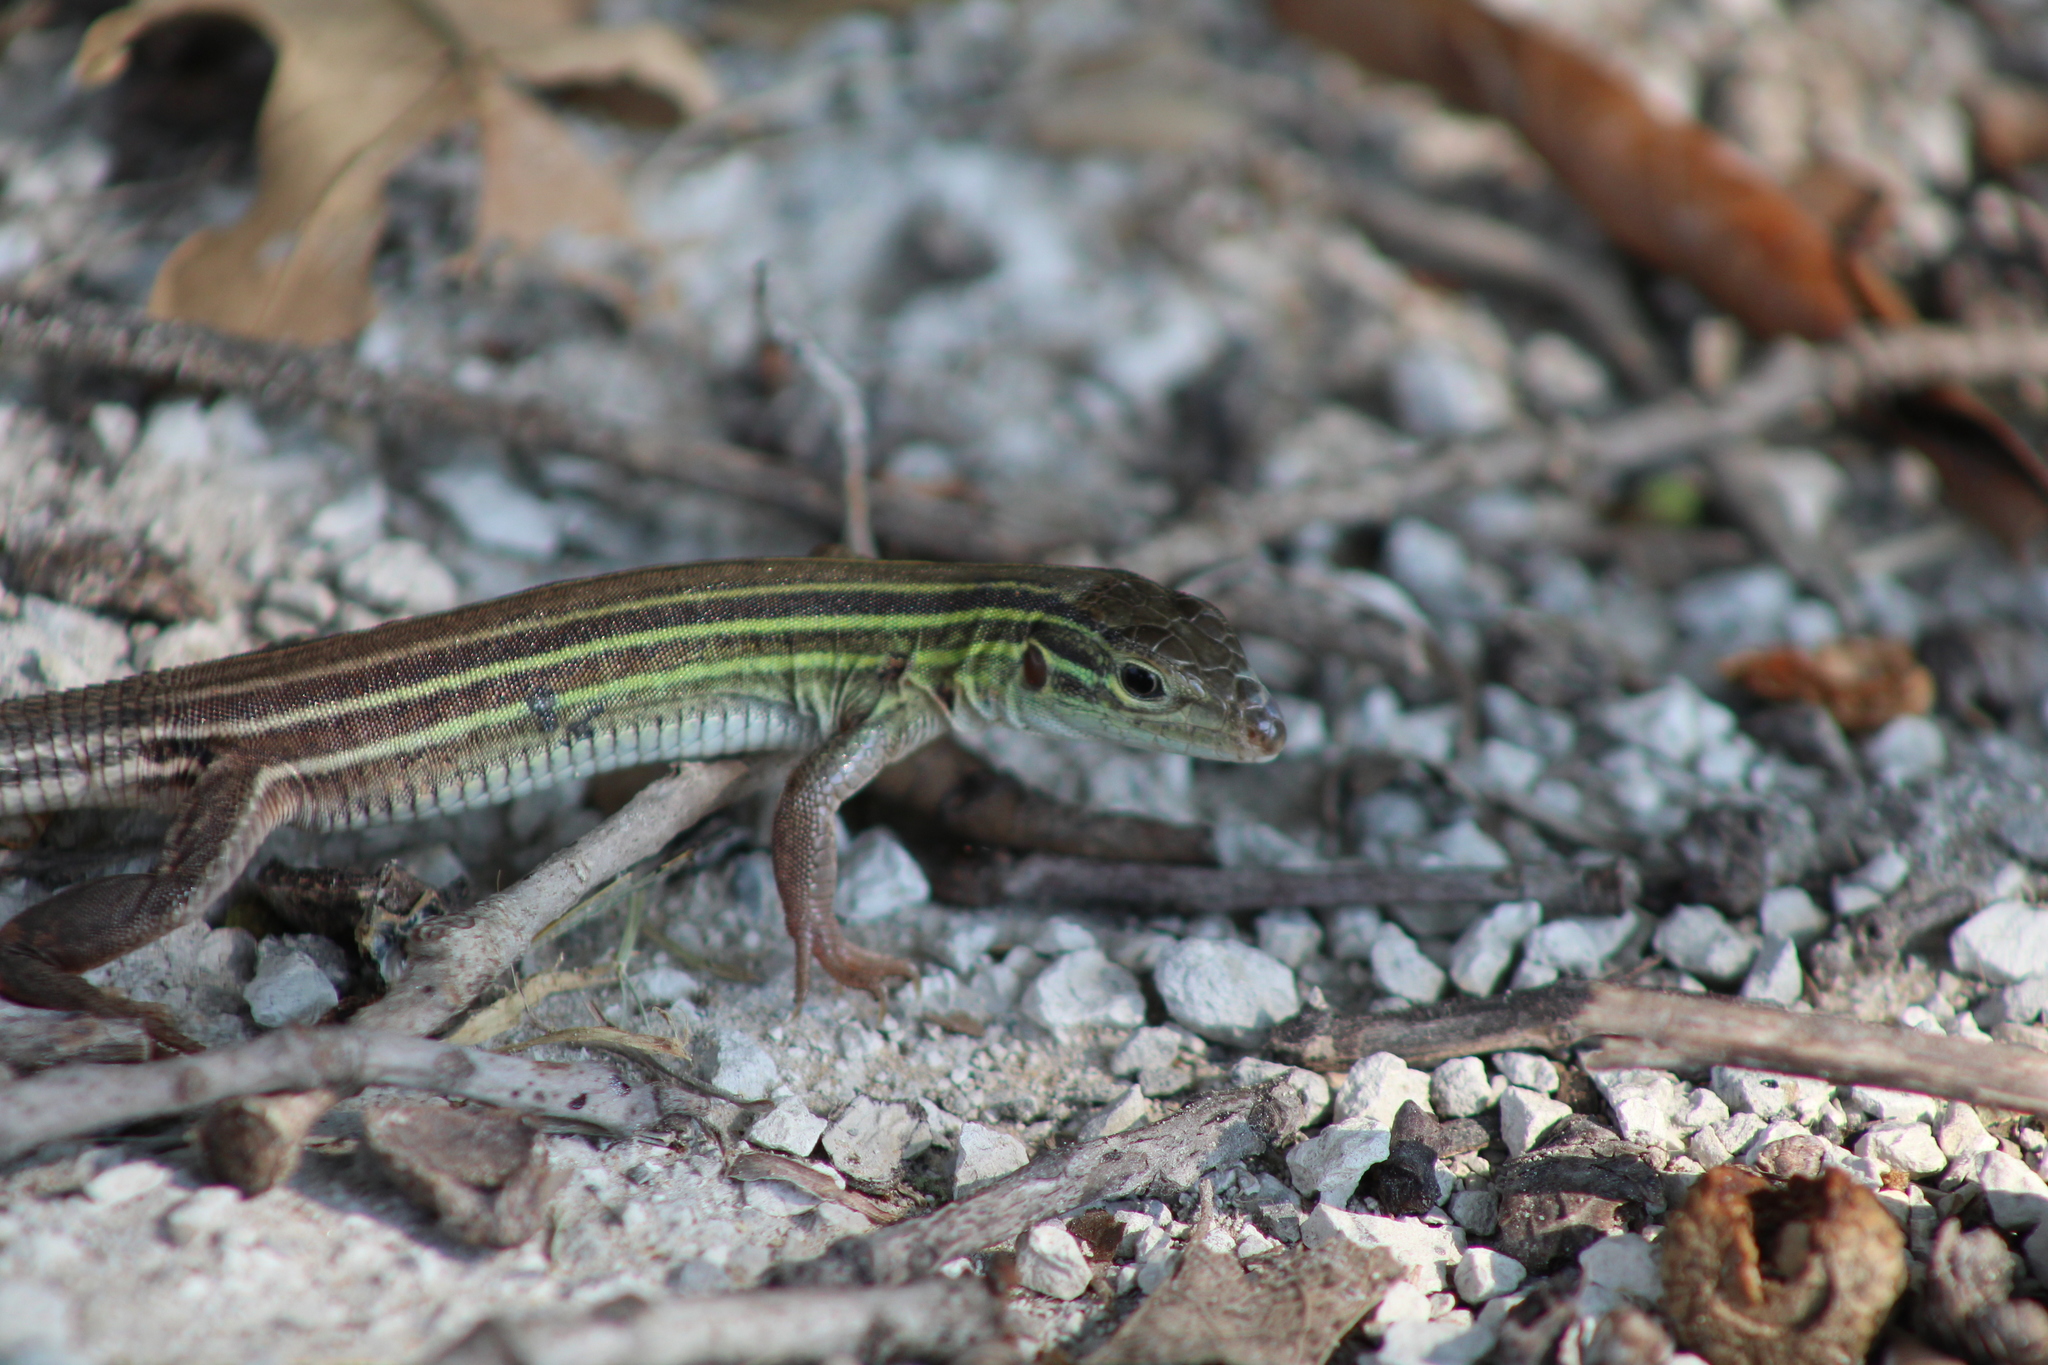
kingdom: Animalia
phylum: Chordata
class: Squamata
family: Teiidae
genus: Aspidoscelis
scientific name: Aspidoscelis sexlineatus
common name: Six-lined racerunner
